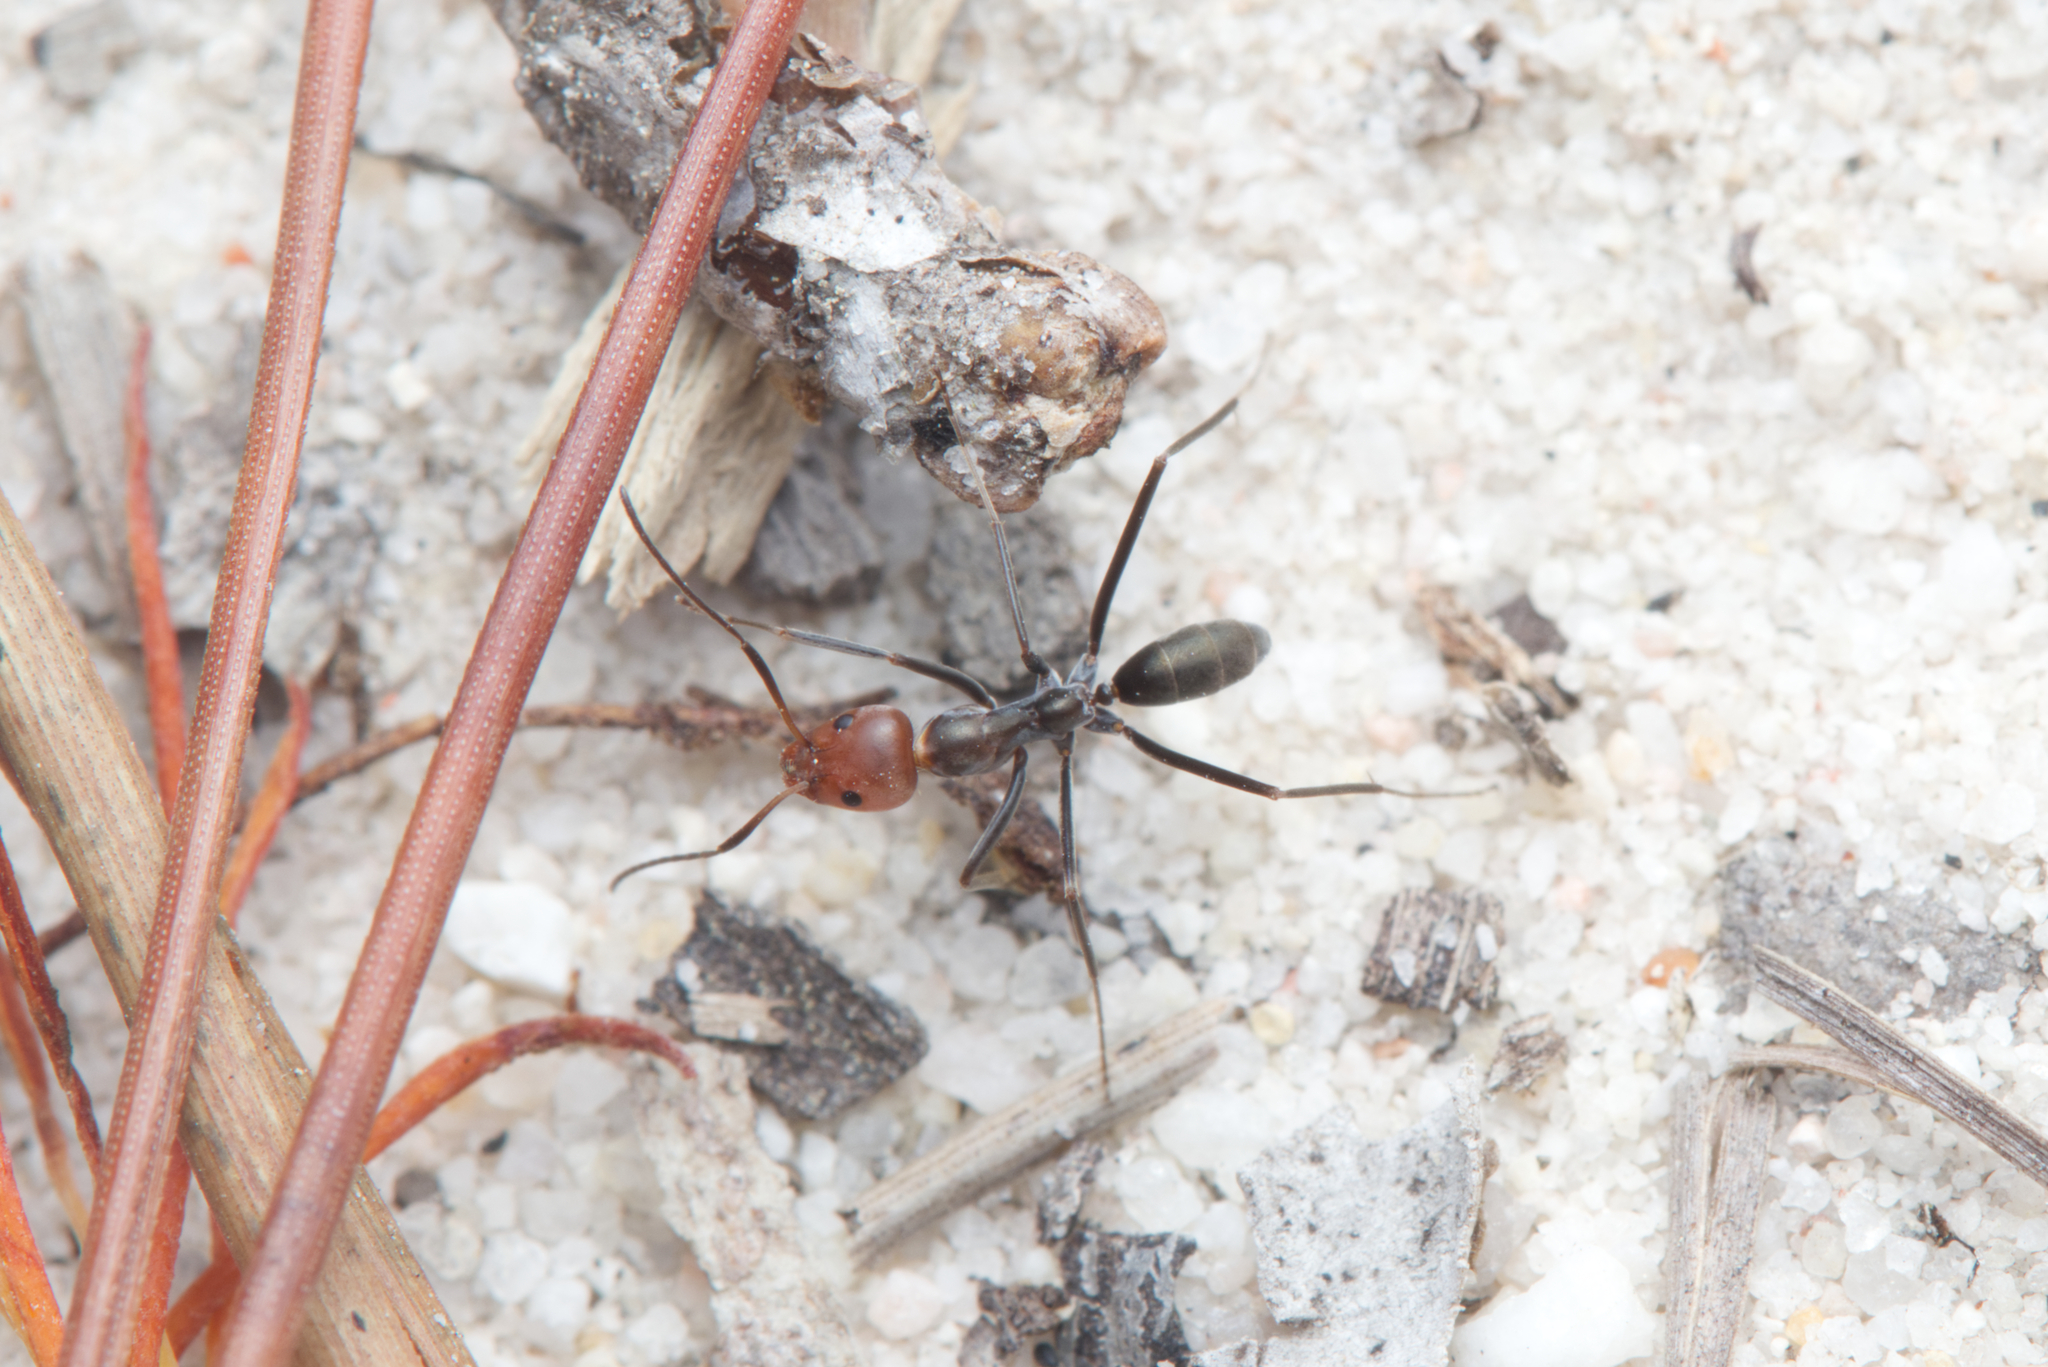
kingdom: Animalia
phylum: Arthropoda
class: Insecta
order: Hymenoptera
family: Formicidae
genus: Iridomyrmex
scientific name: Iridomyrmex
